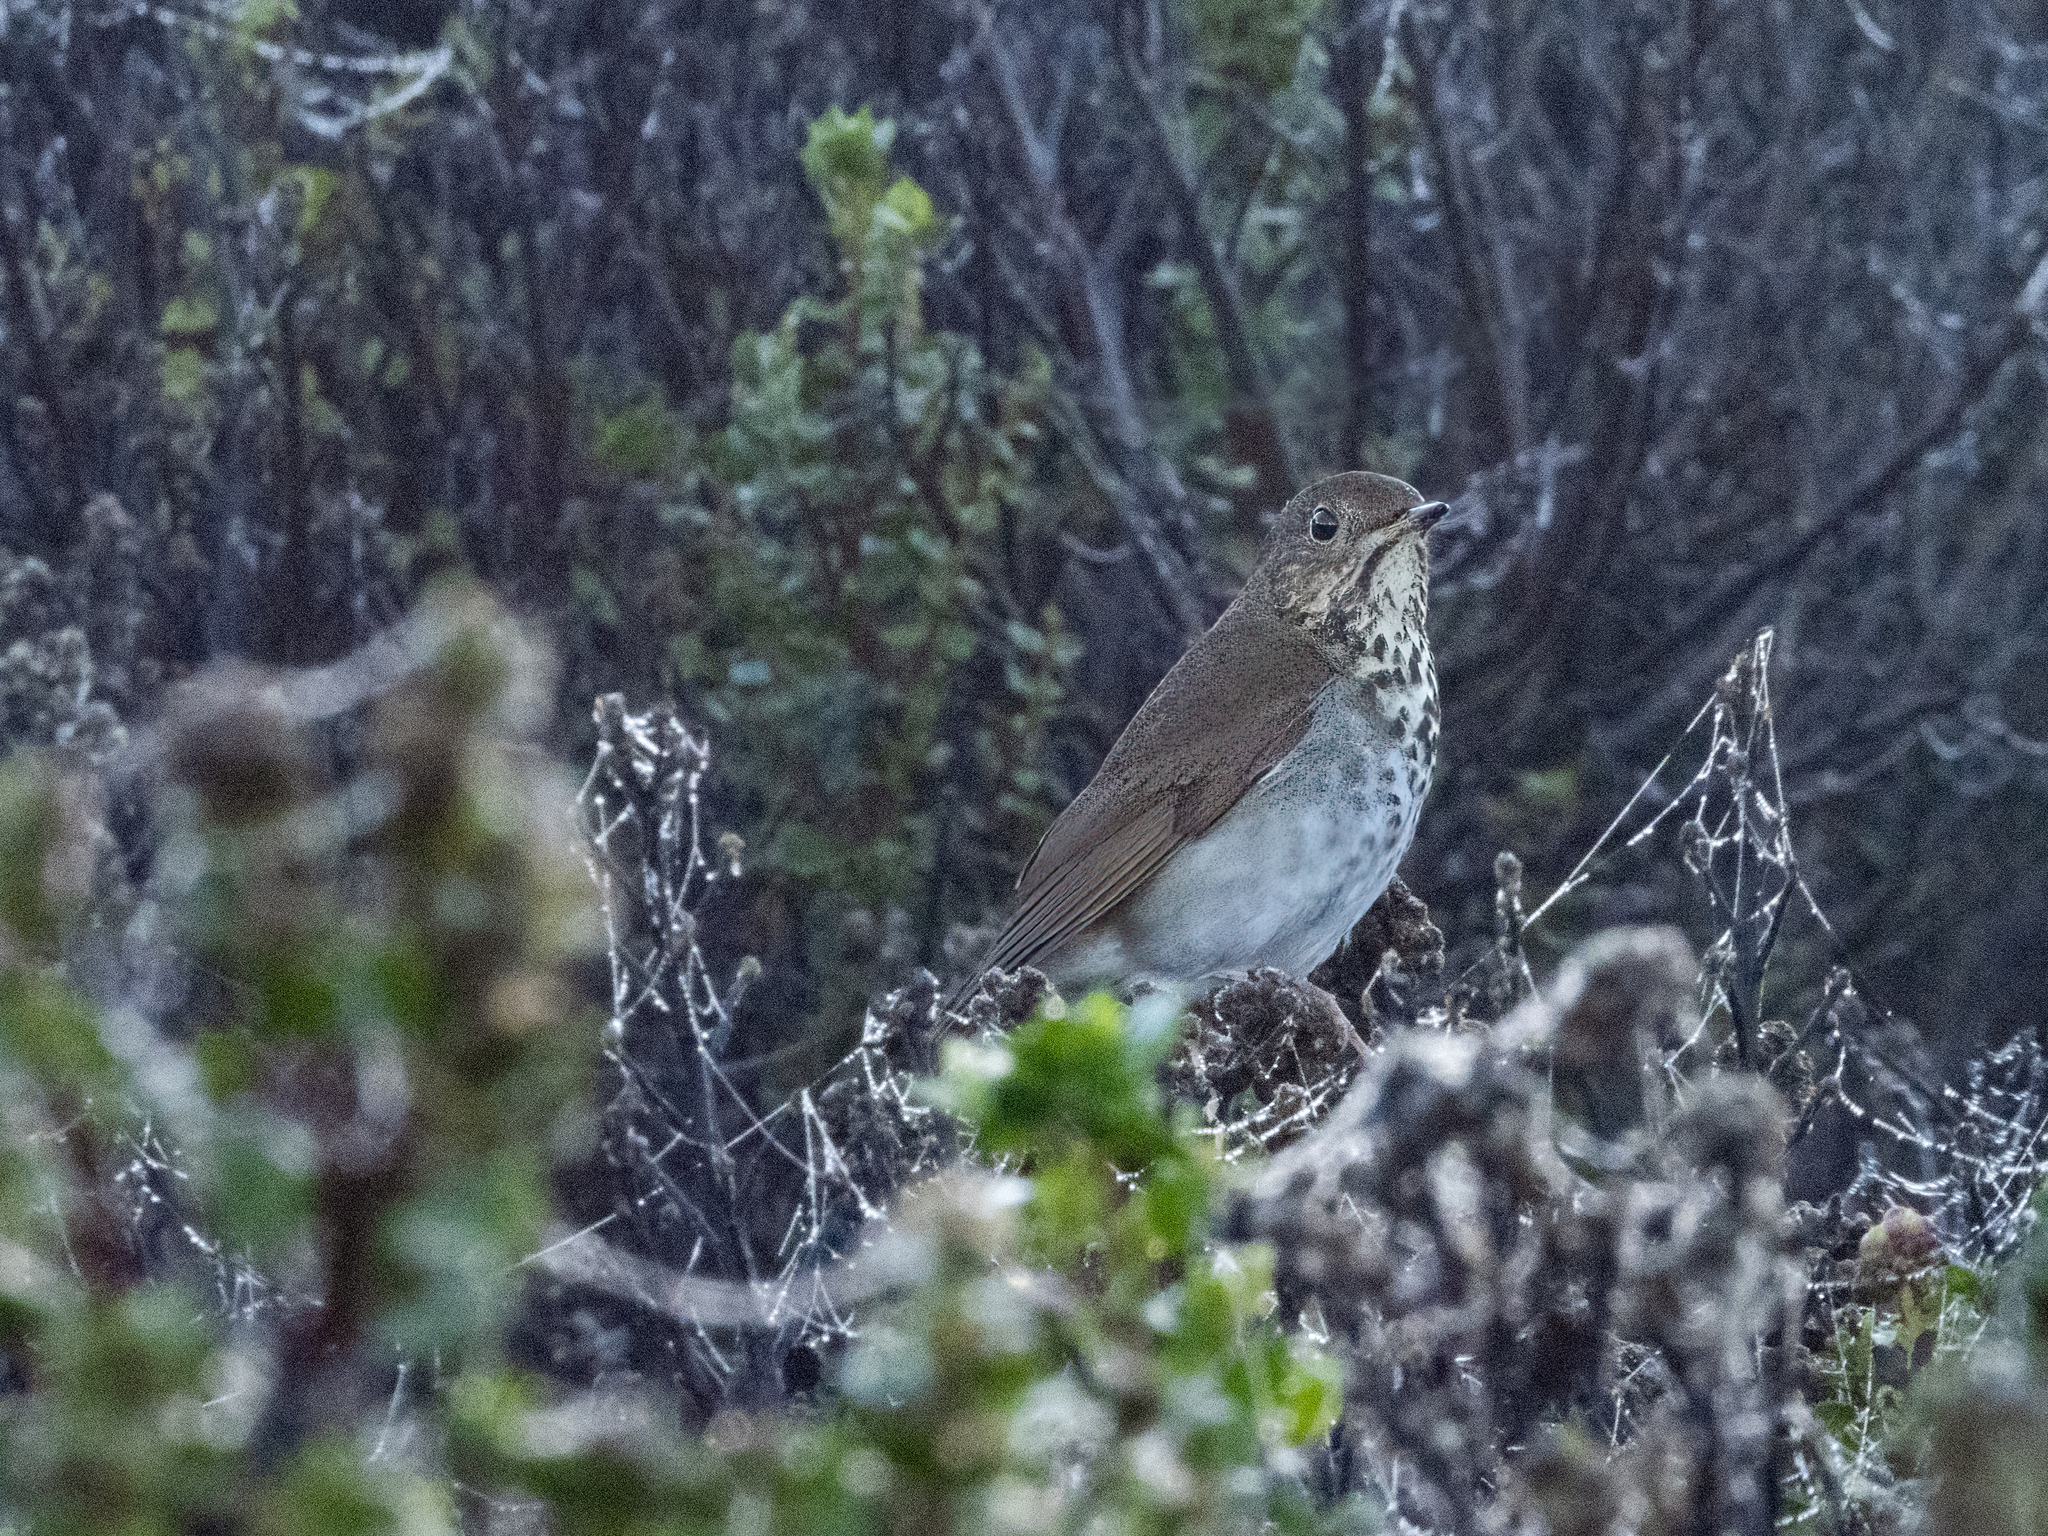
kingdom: Animalia
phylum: Chordata
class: Aves
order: Passeriformes
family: Turdidae
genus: Catharus
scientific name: Catharus guttatus
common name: Hermit thrush
